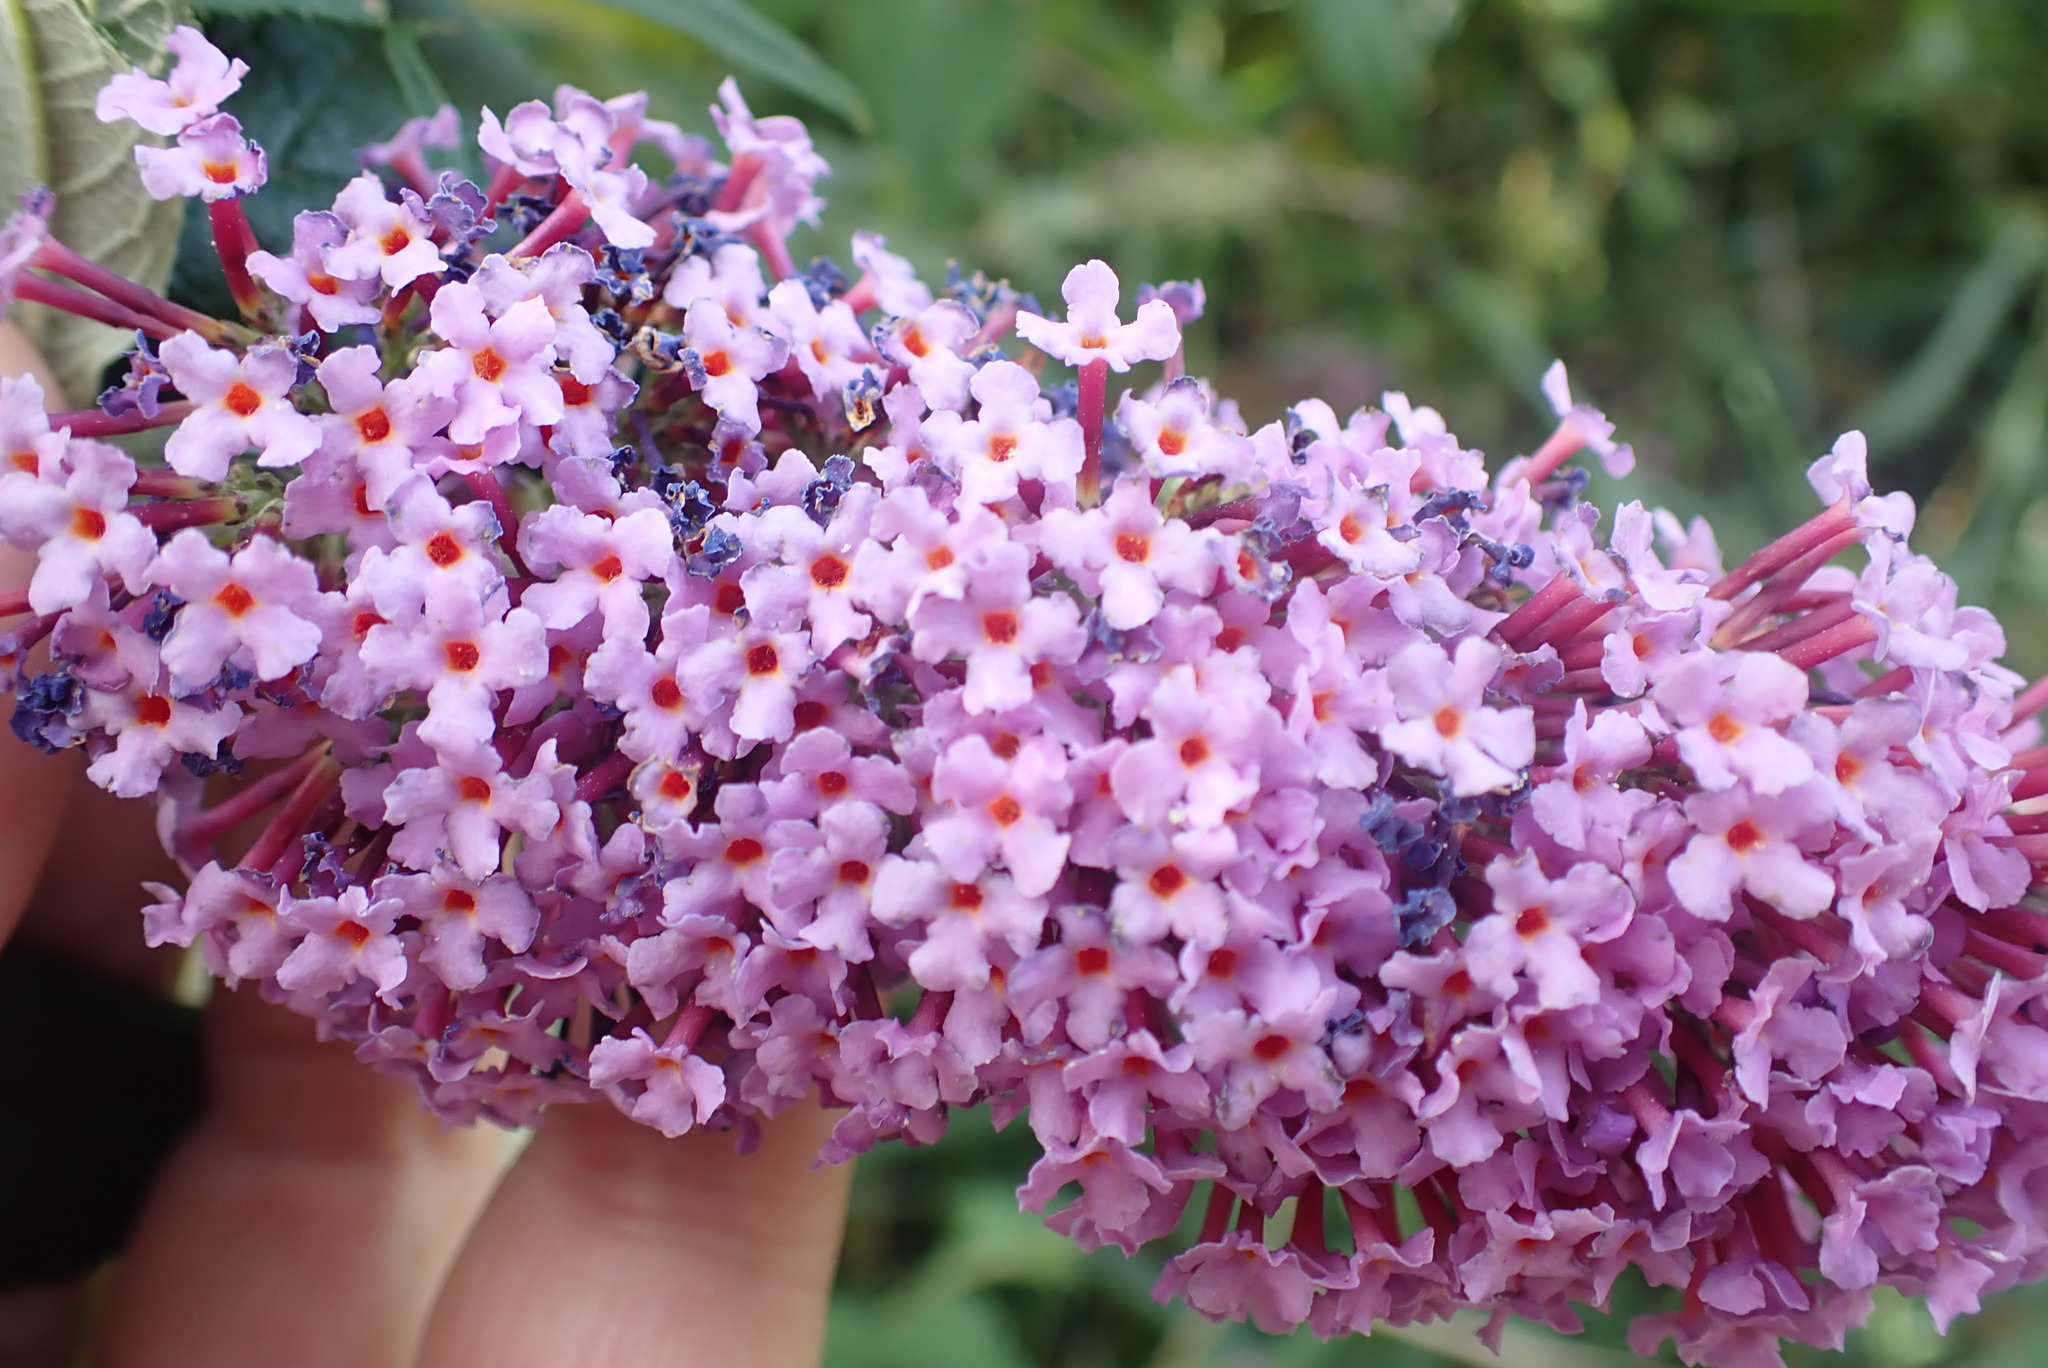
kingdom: Plantae
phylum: Tracheophyta
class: Magnoliopsida
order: Lamiales
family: Scrophulariaceae
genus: Buddleja
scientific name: Buddleja davidii
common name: Butterfly-bush
